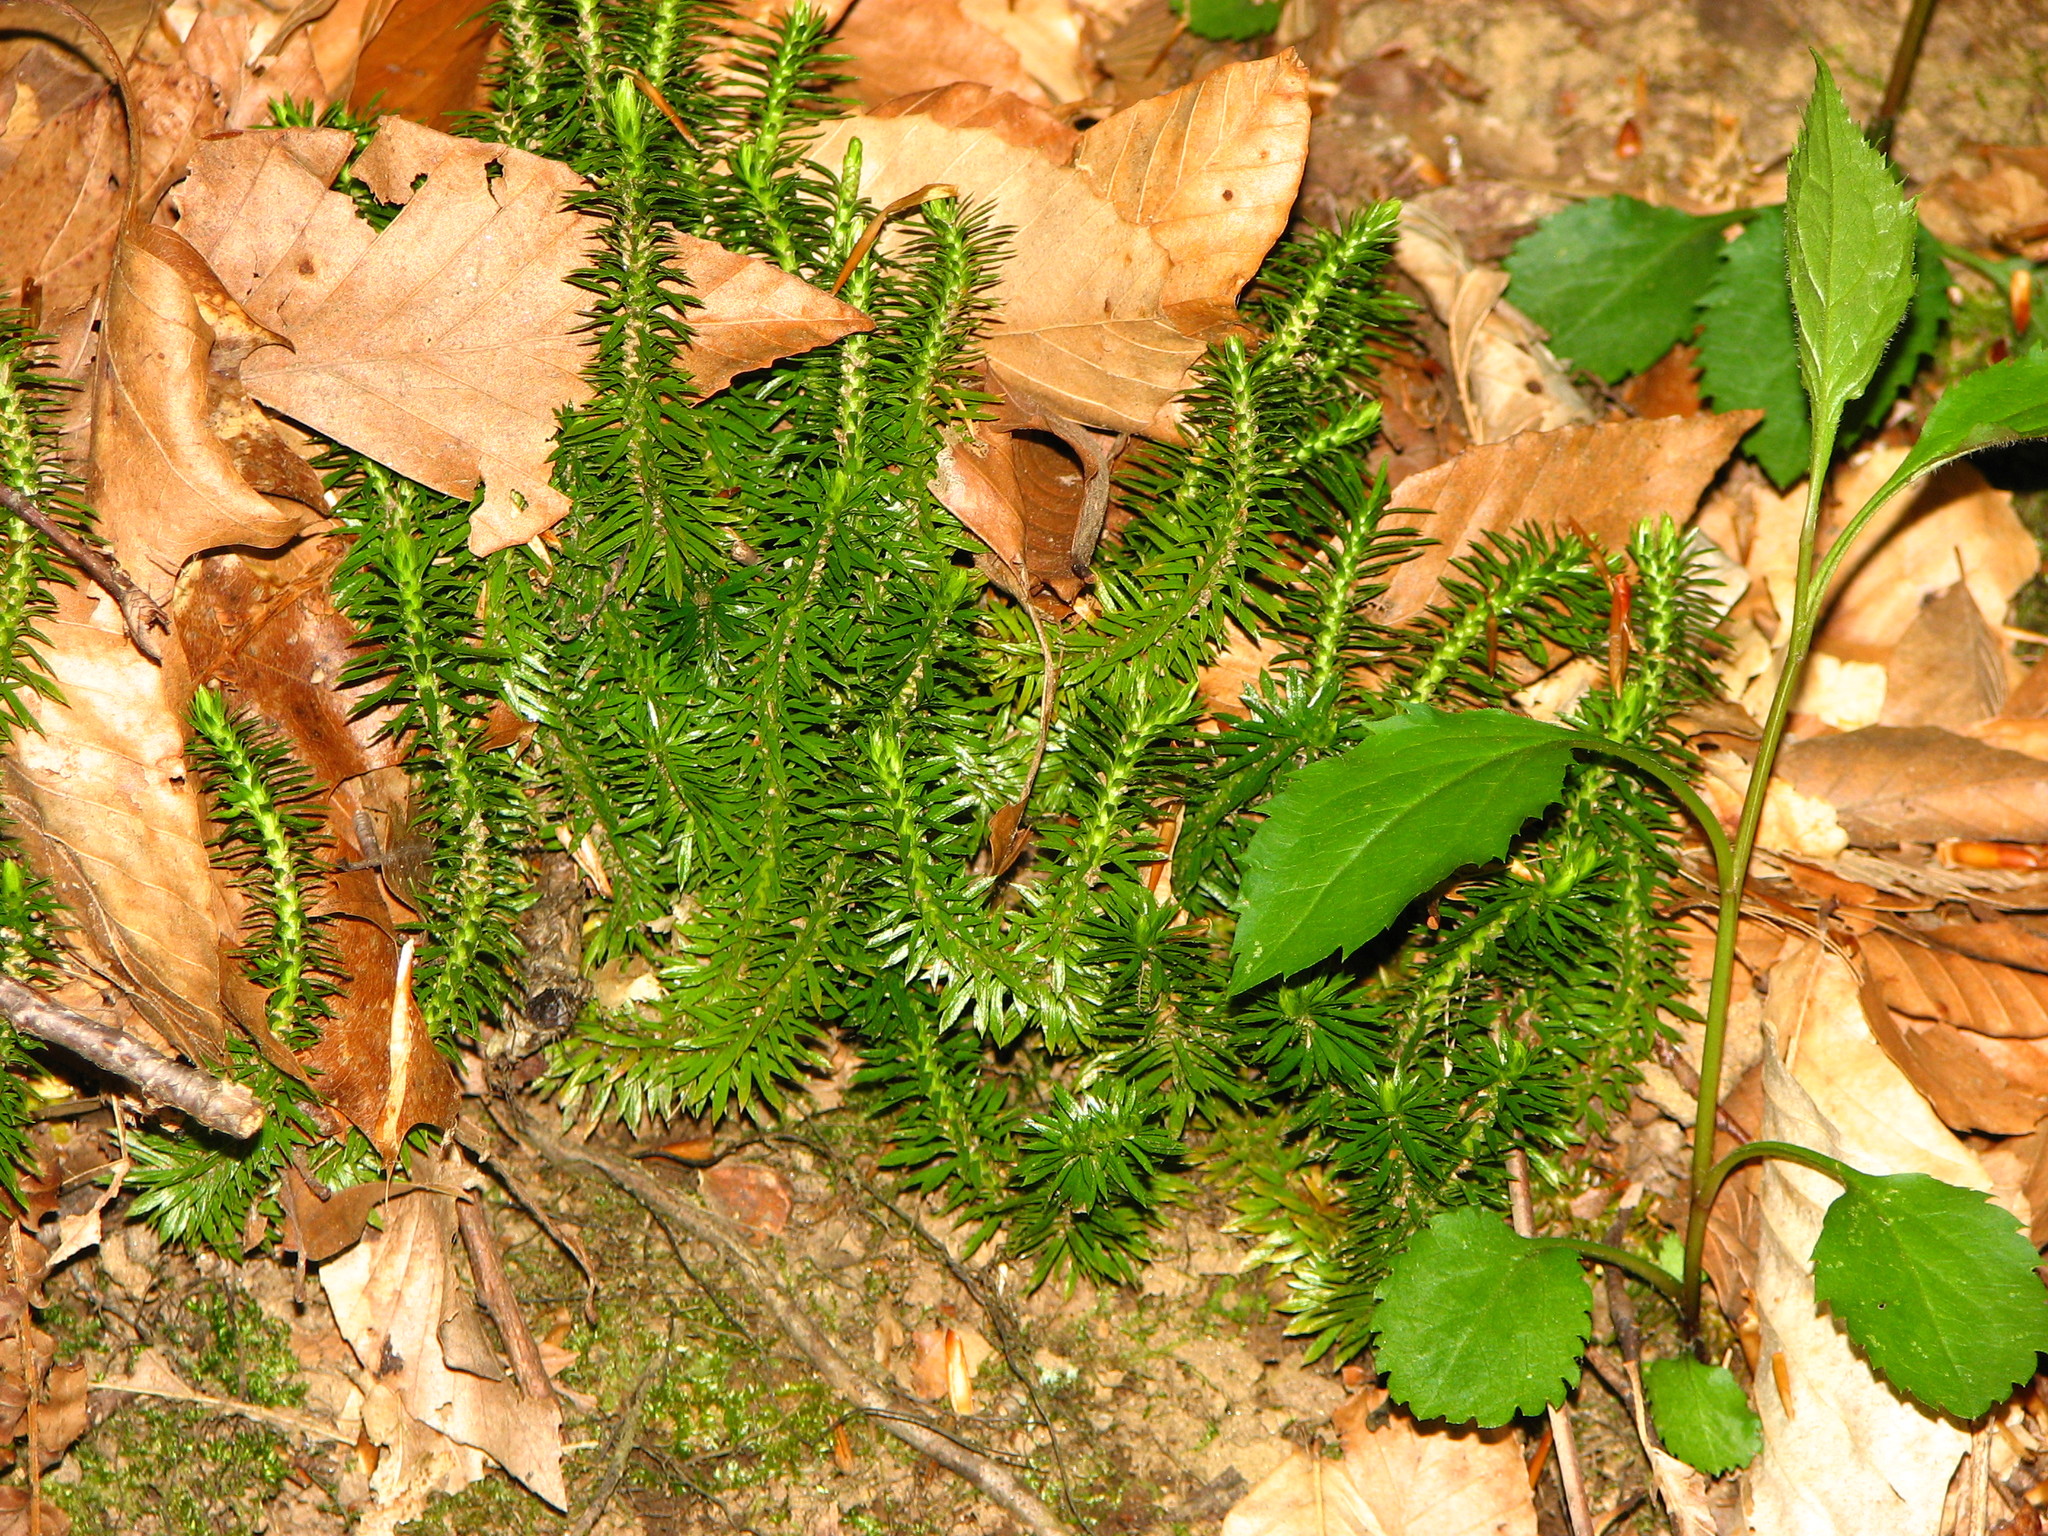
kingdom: Plantae
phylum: Tracheophyta
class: Lycopodiopsida
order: Lycopodiales
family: Lycopodiaceae
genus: Huperzia
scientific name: Huperzia lucidula
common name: Shining clubmoss
